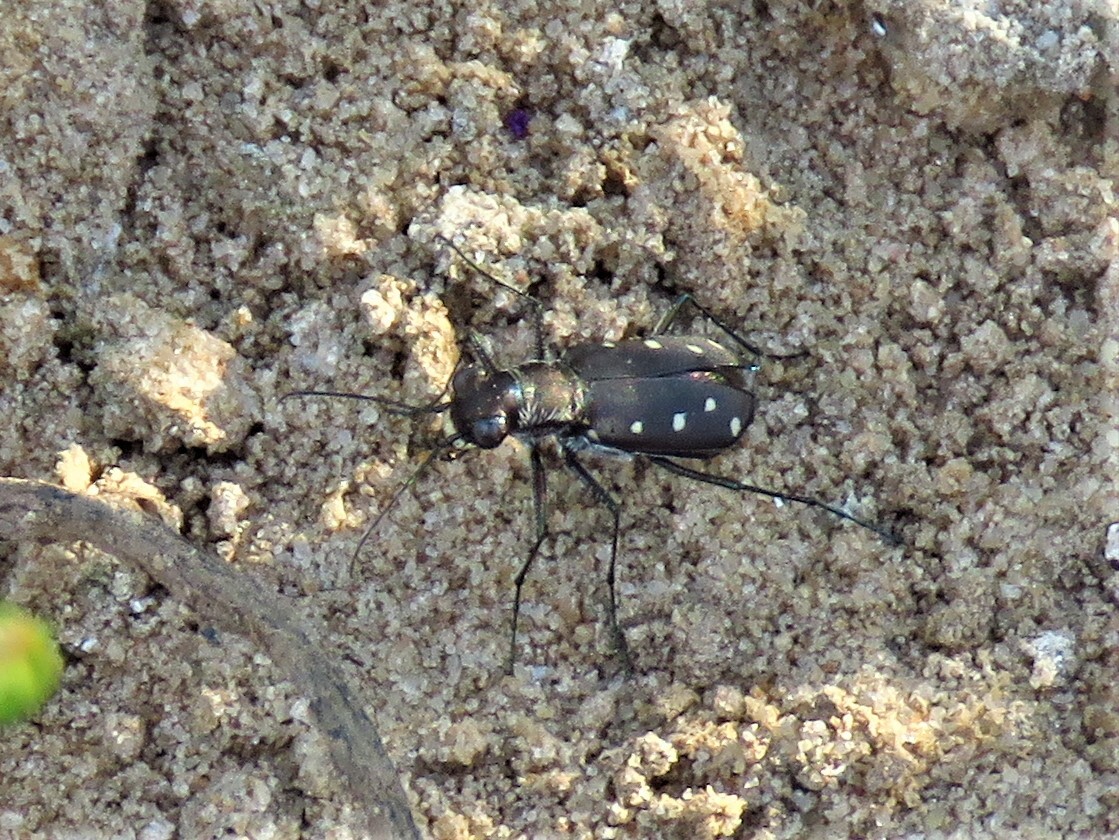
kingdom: Animalia
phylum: Arthropoda
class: Insecta
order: Coleoptera
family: Carabidae
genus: Cicindela
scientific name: Cicindela ocellata
